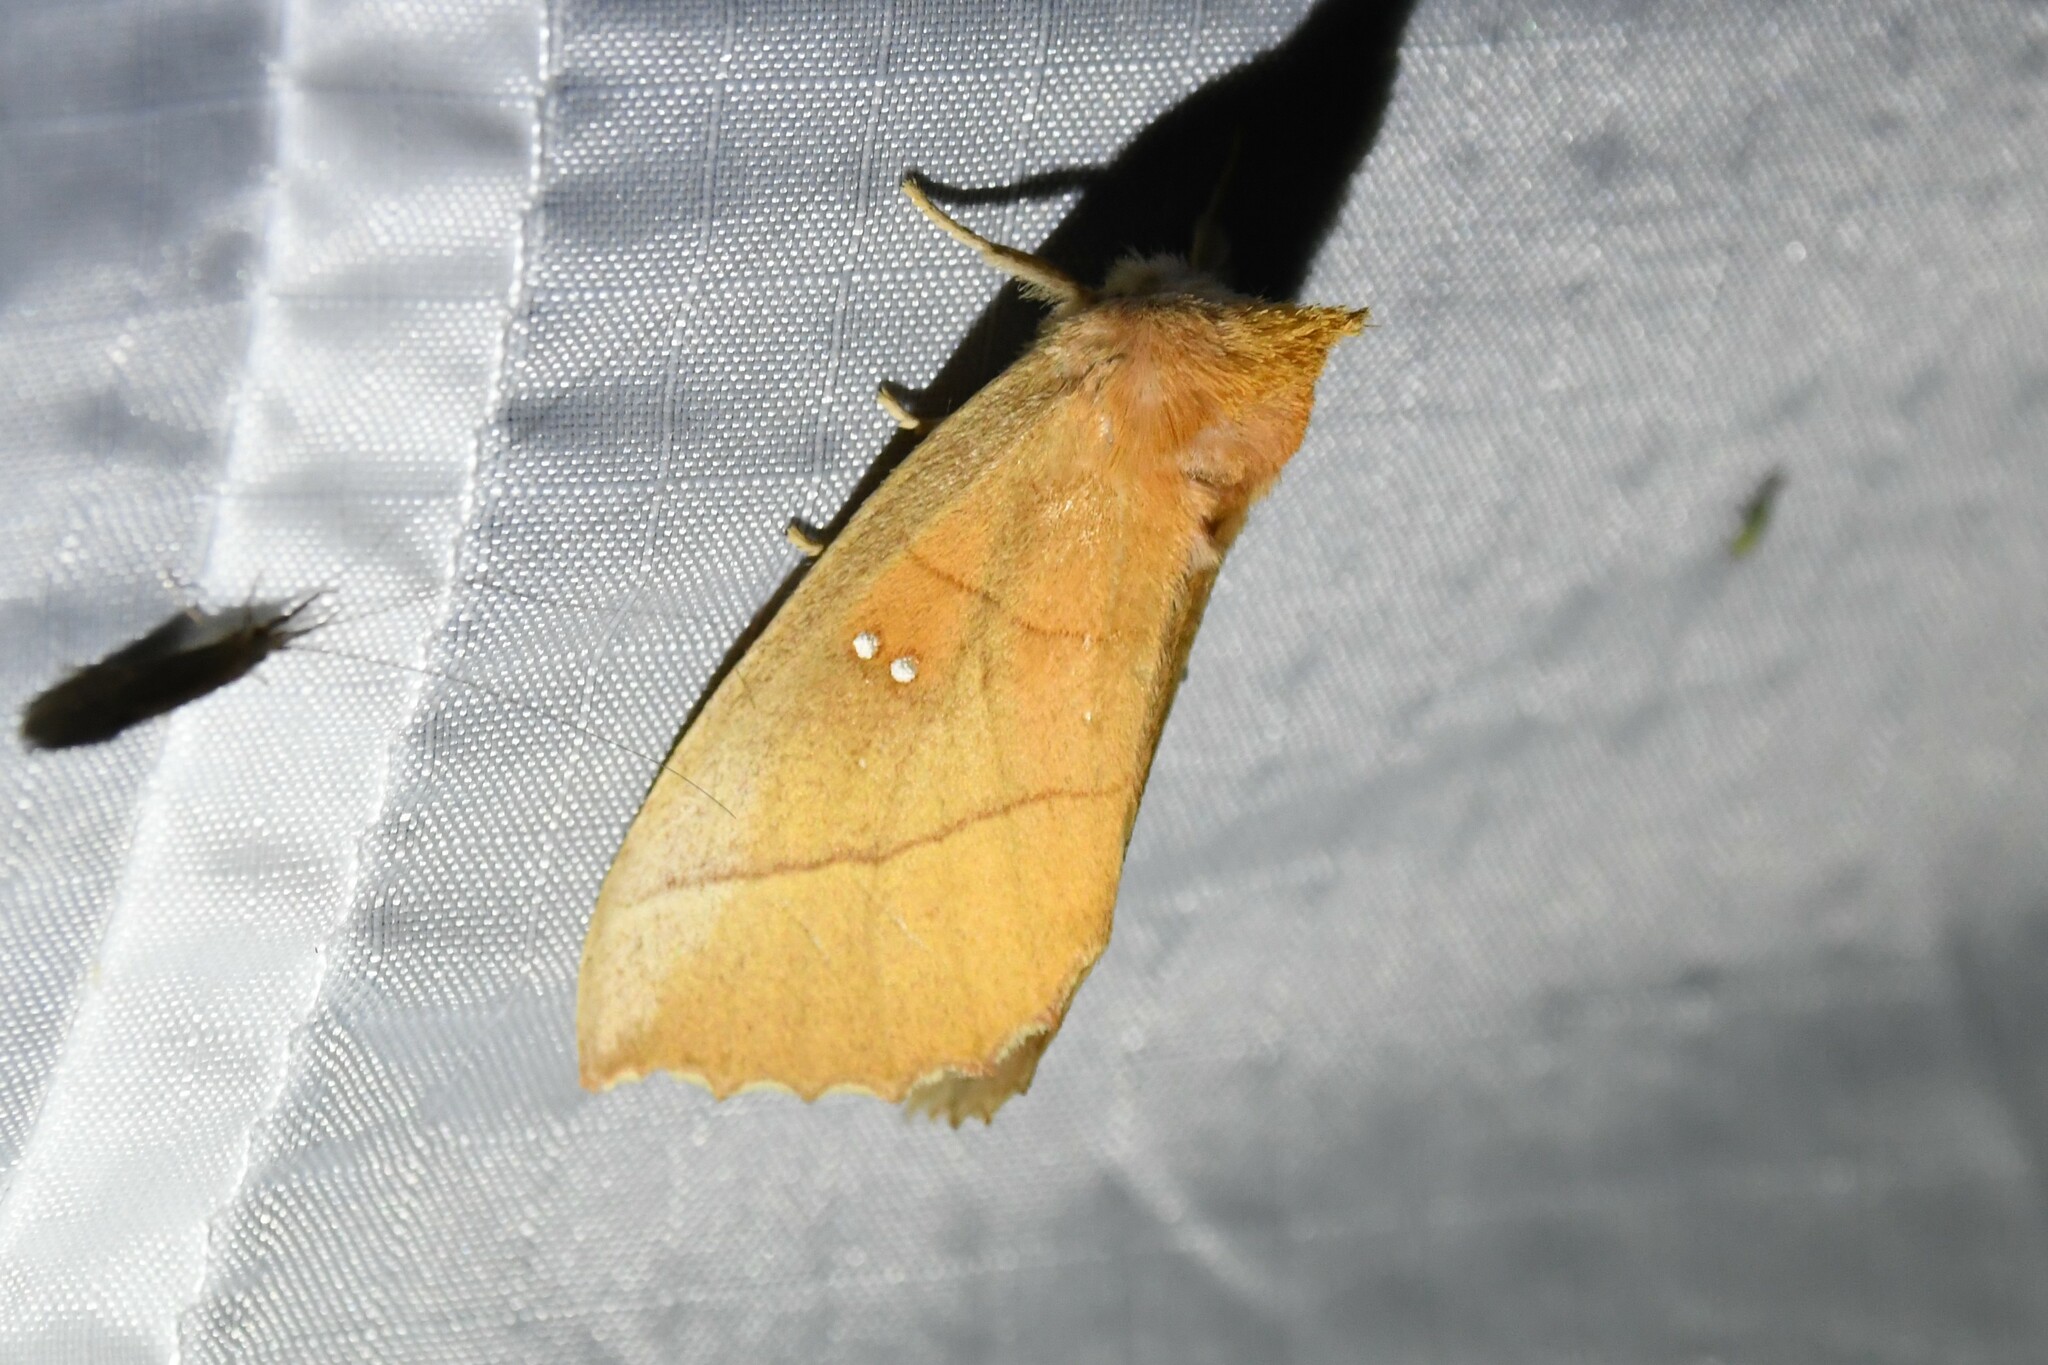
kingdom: Animalia
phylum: Arthropoda
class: Insecta
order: Lepidoptera
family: Notodontidae
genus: Nadata
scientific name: Nadata gibbosa
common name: White-dotted prominent
